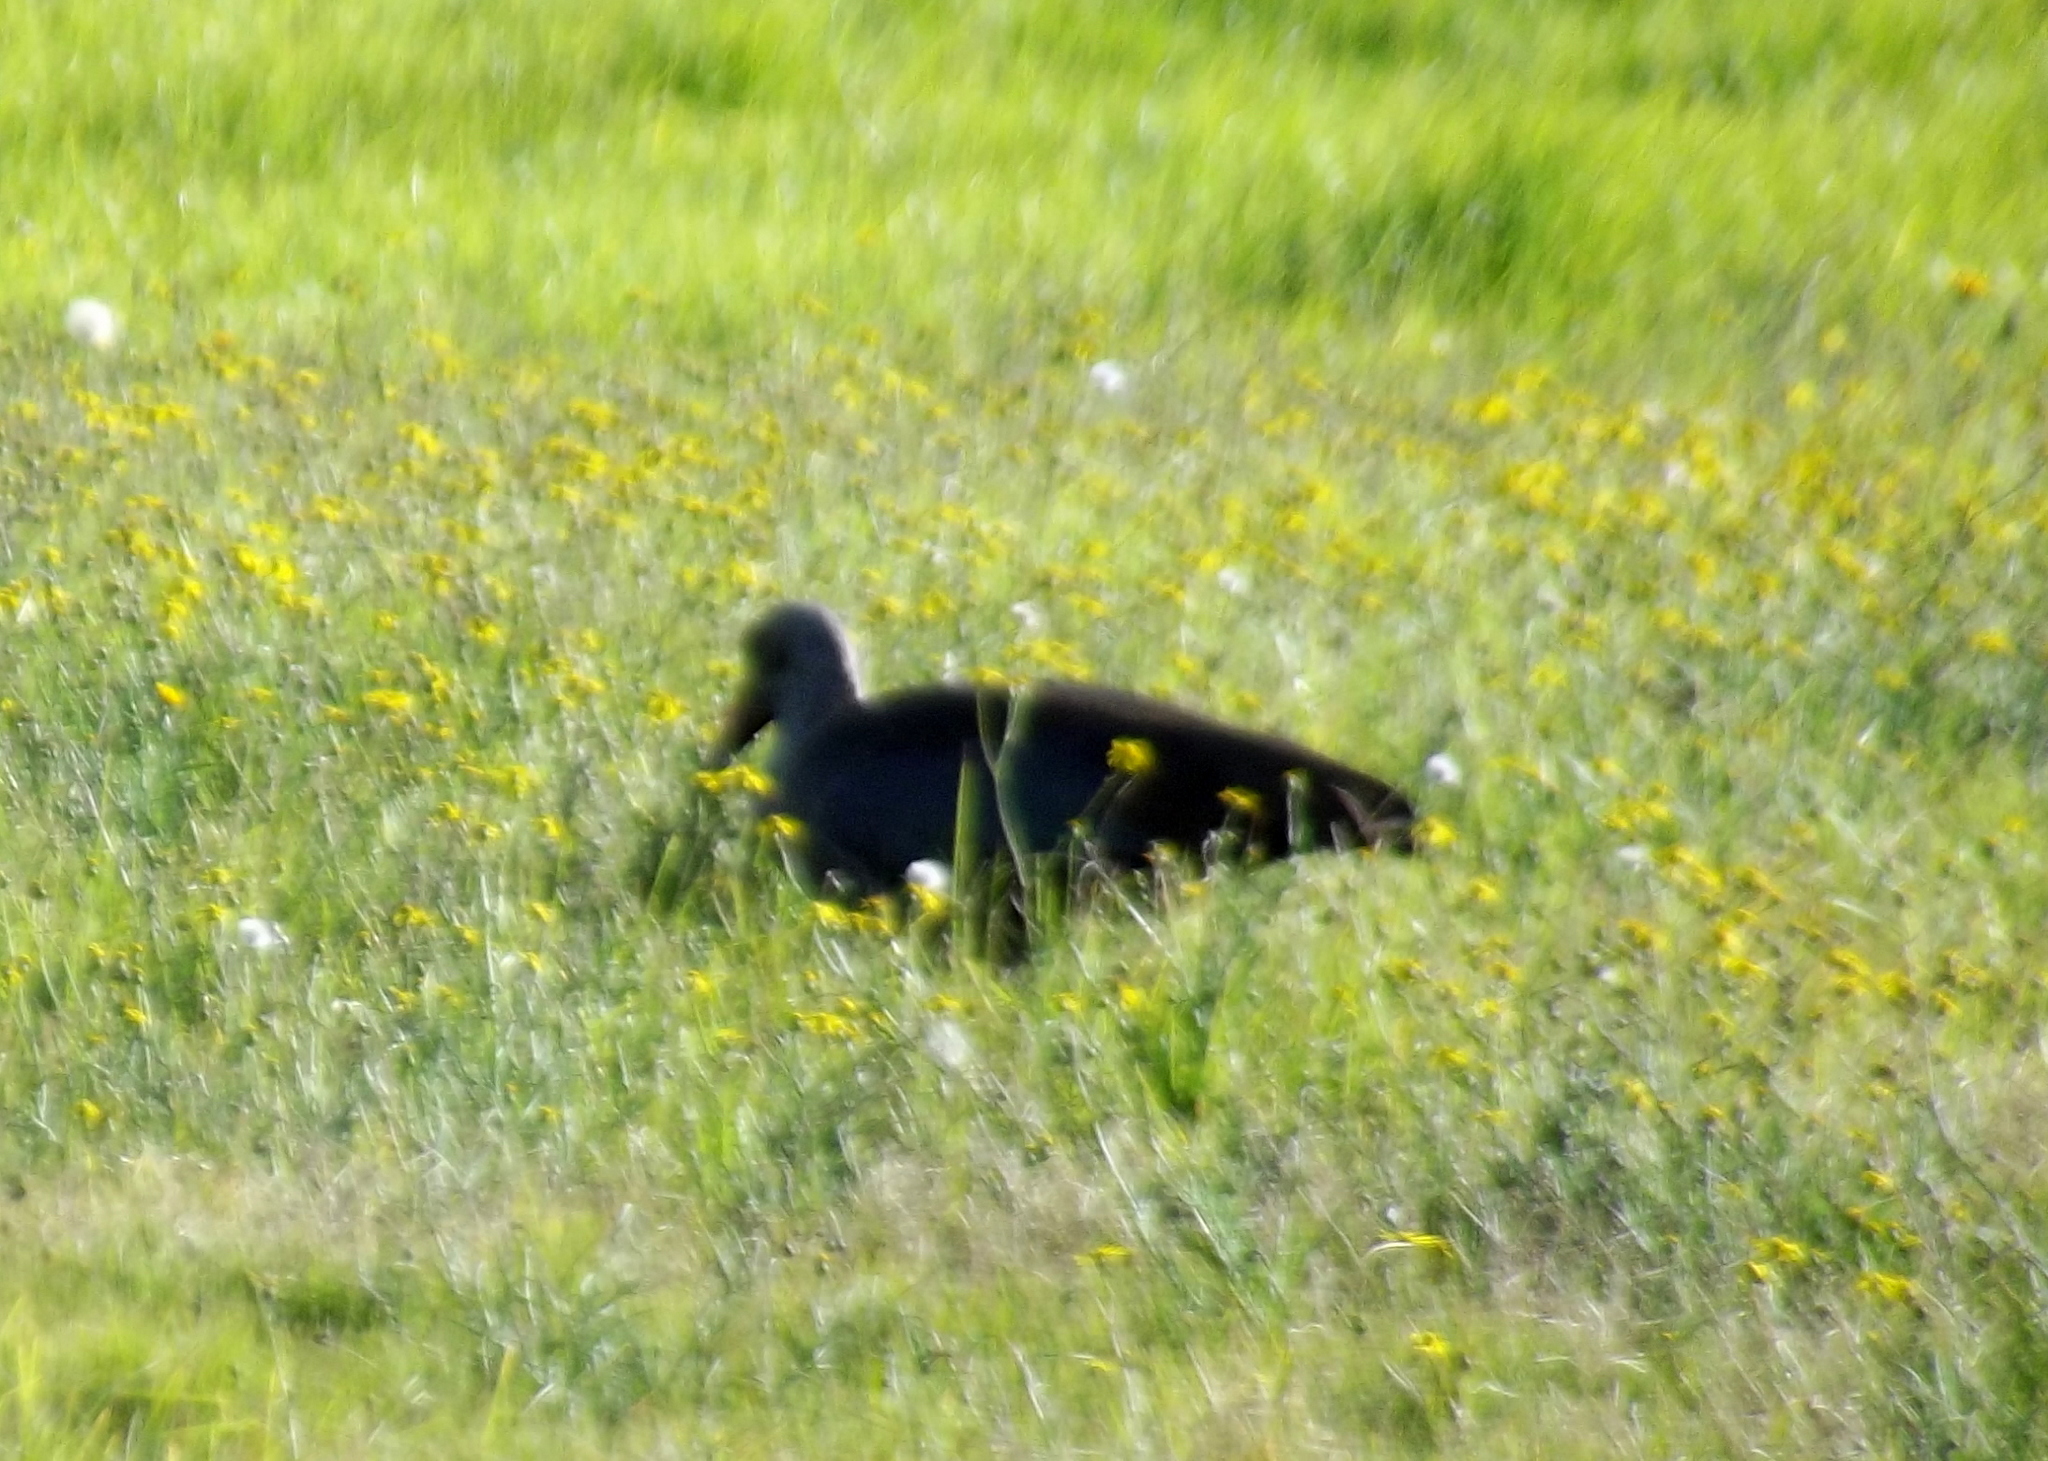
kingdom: Animalia
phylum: Chordata
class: Aves
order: Pelecaniformes
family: Threskiornithidae
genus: Bostrychia
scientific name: Bostrychia hagedash
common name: Hadada ibis
